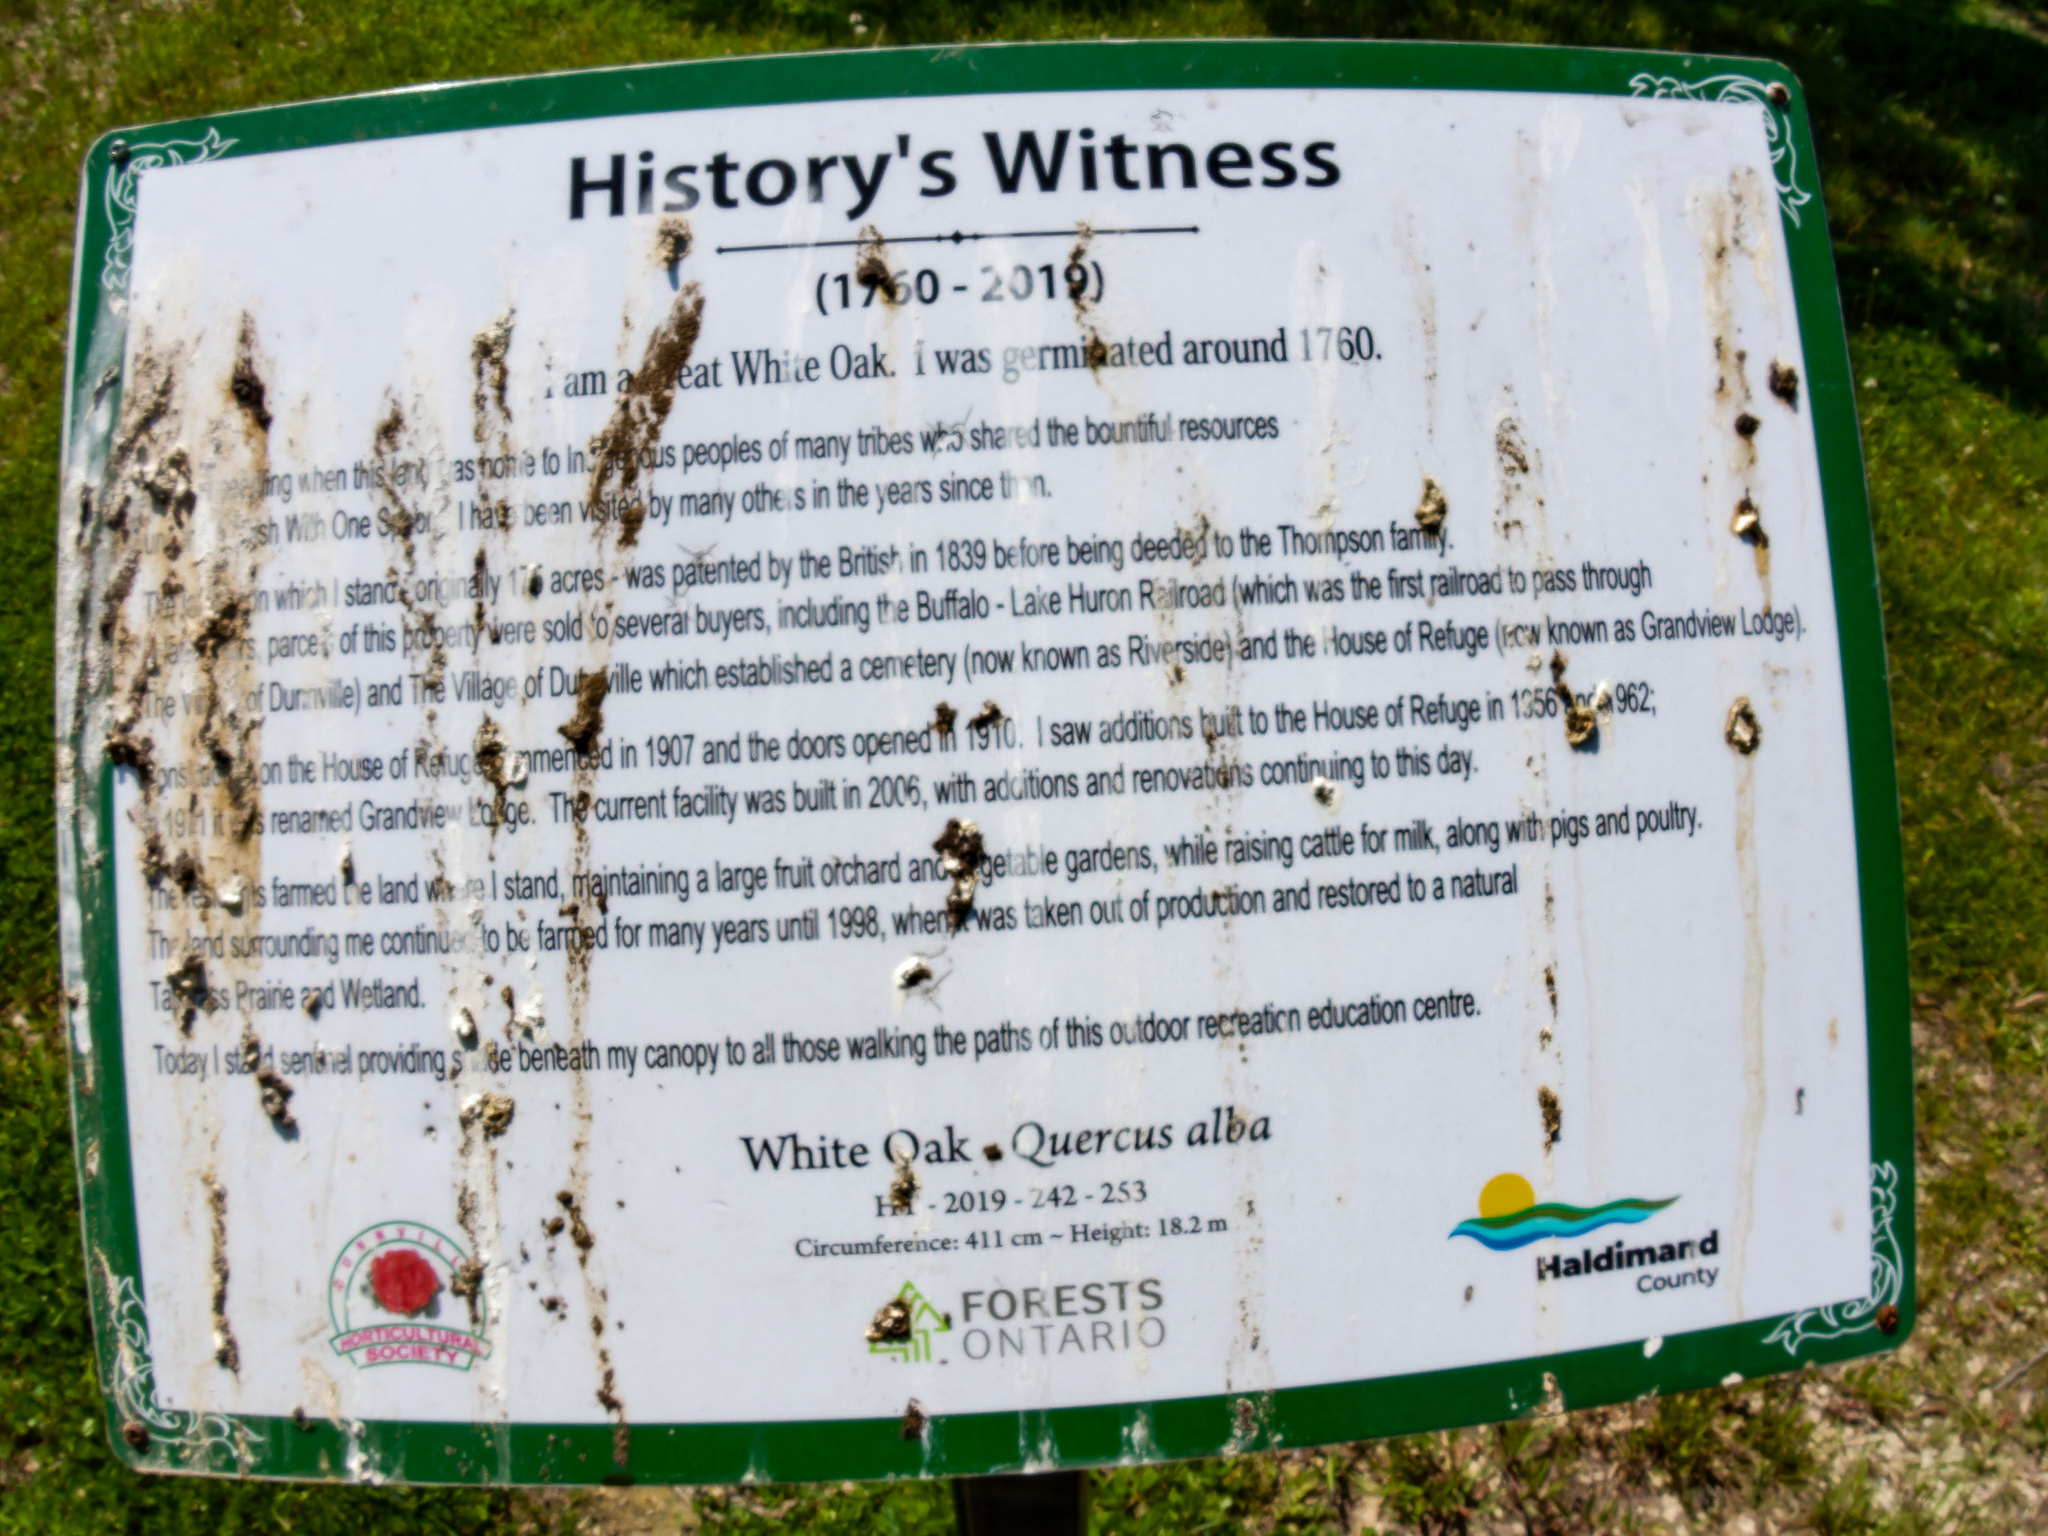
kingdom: Plantae
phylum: Tracheophyta
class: Magnoliopsida
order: Fagales
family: Fagaceae
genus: Quercus
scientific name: Quercus alba
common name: White oak
